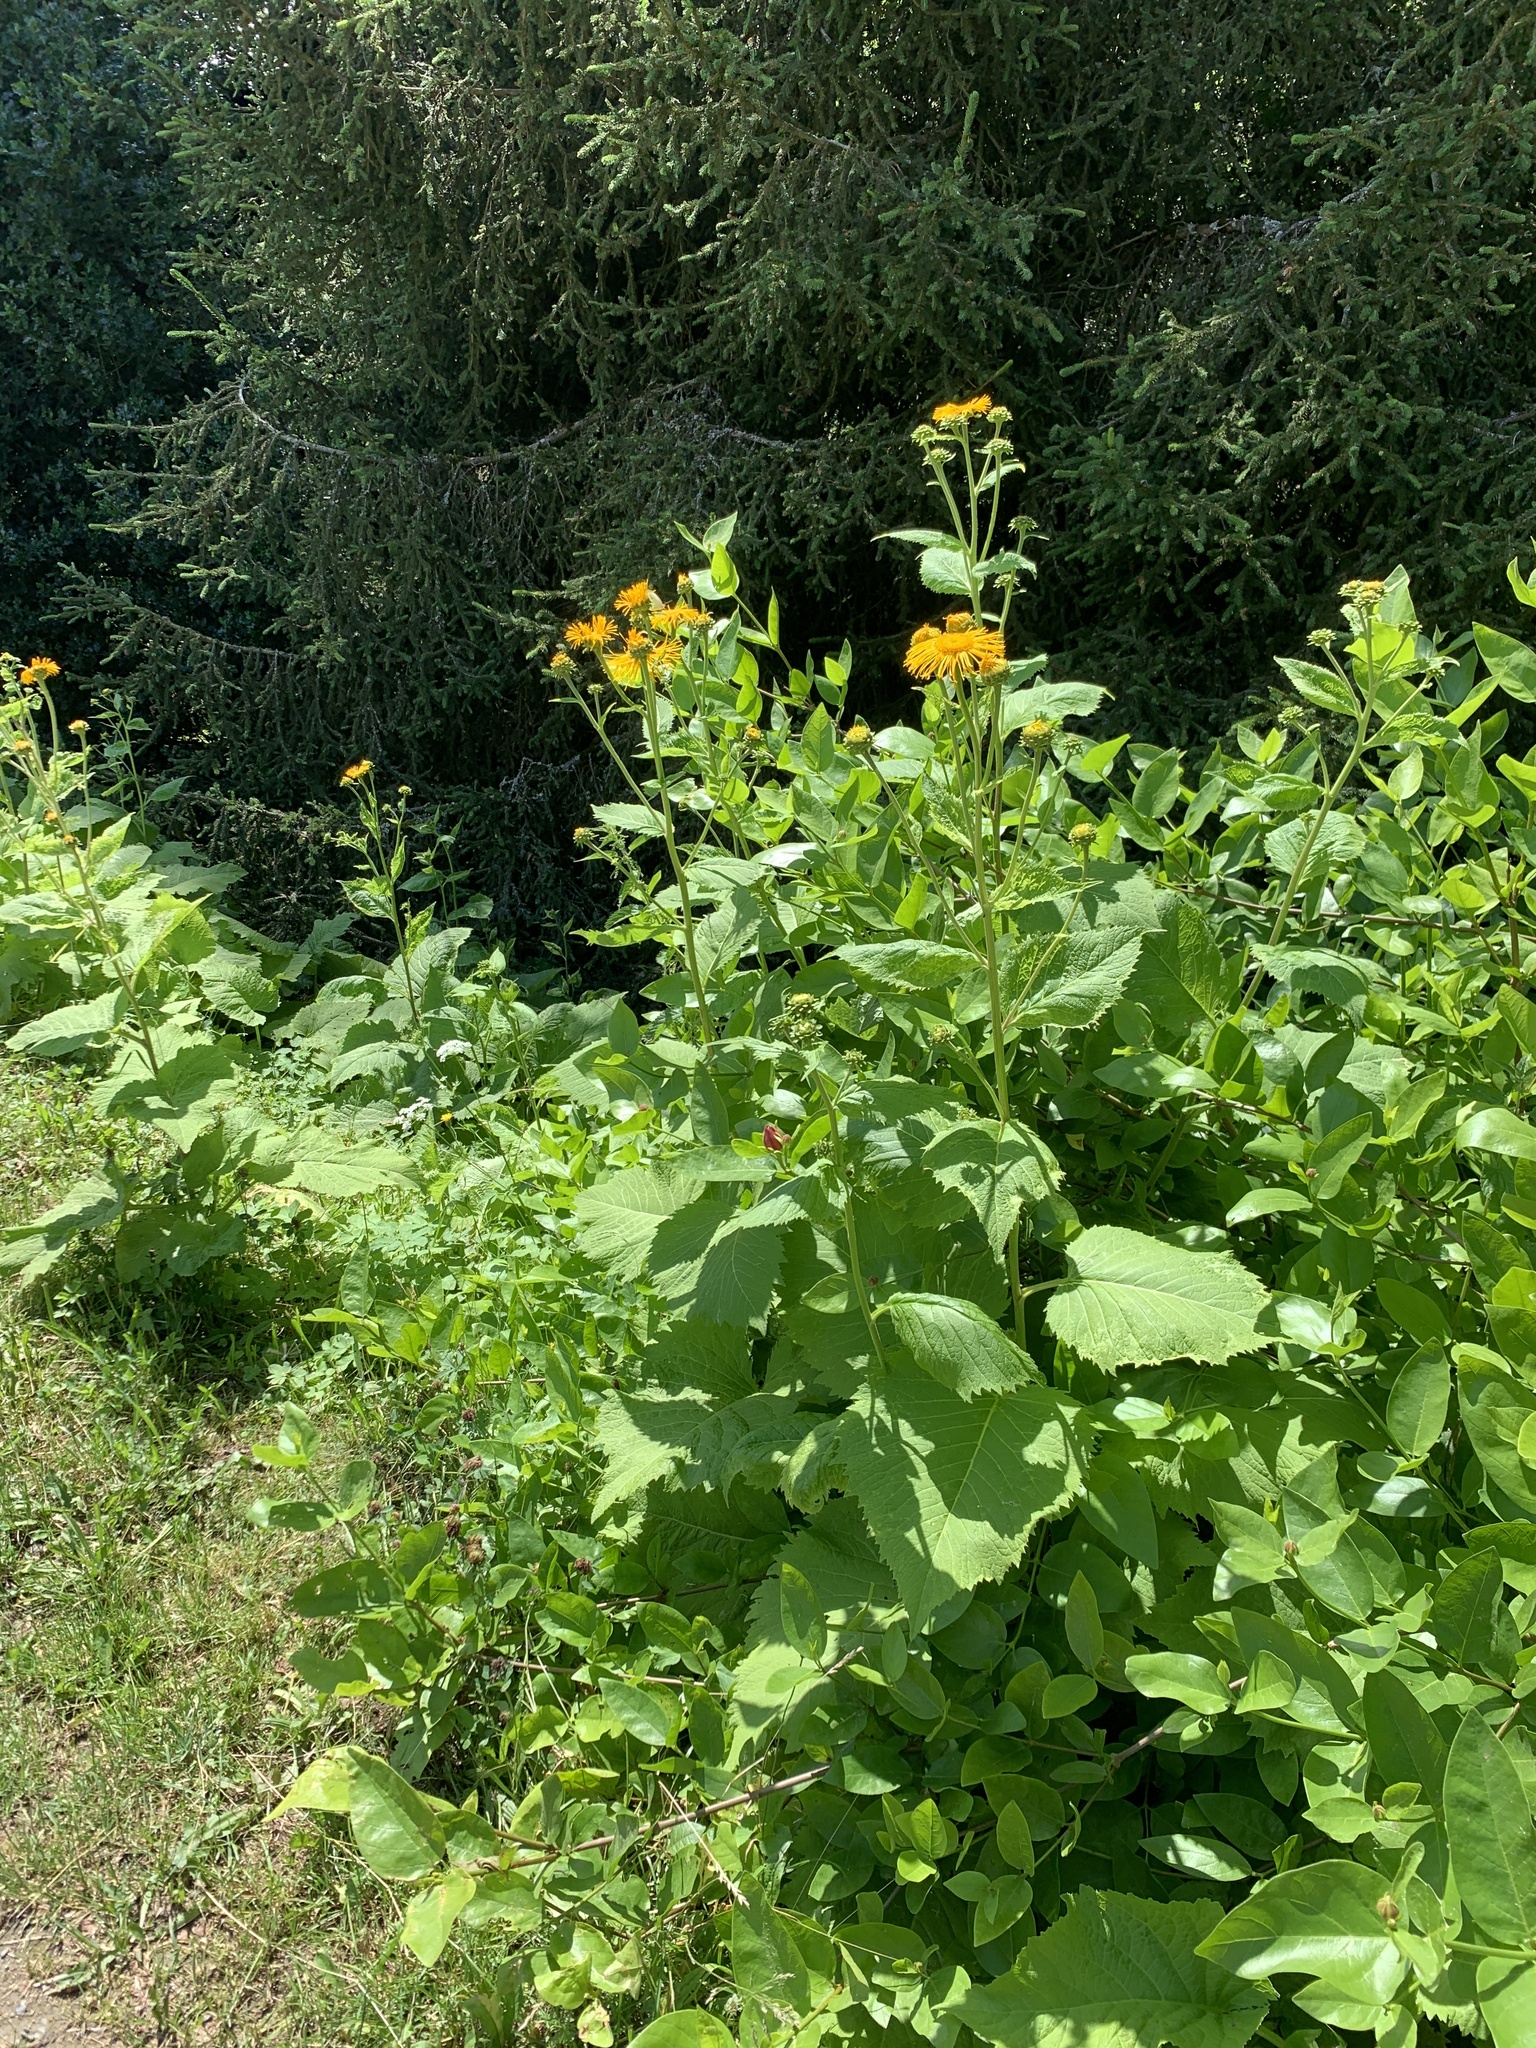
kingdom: Plantae
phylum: Tracheophyta
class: Magnoliopsida
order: Asterales
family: Asteraceae
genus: Telekia
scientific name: Telekia speciosa
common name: Yellow oxeye
